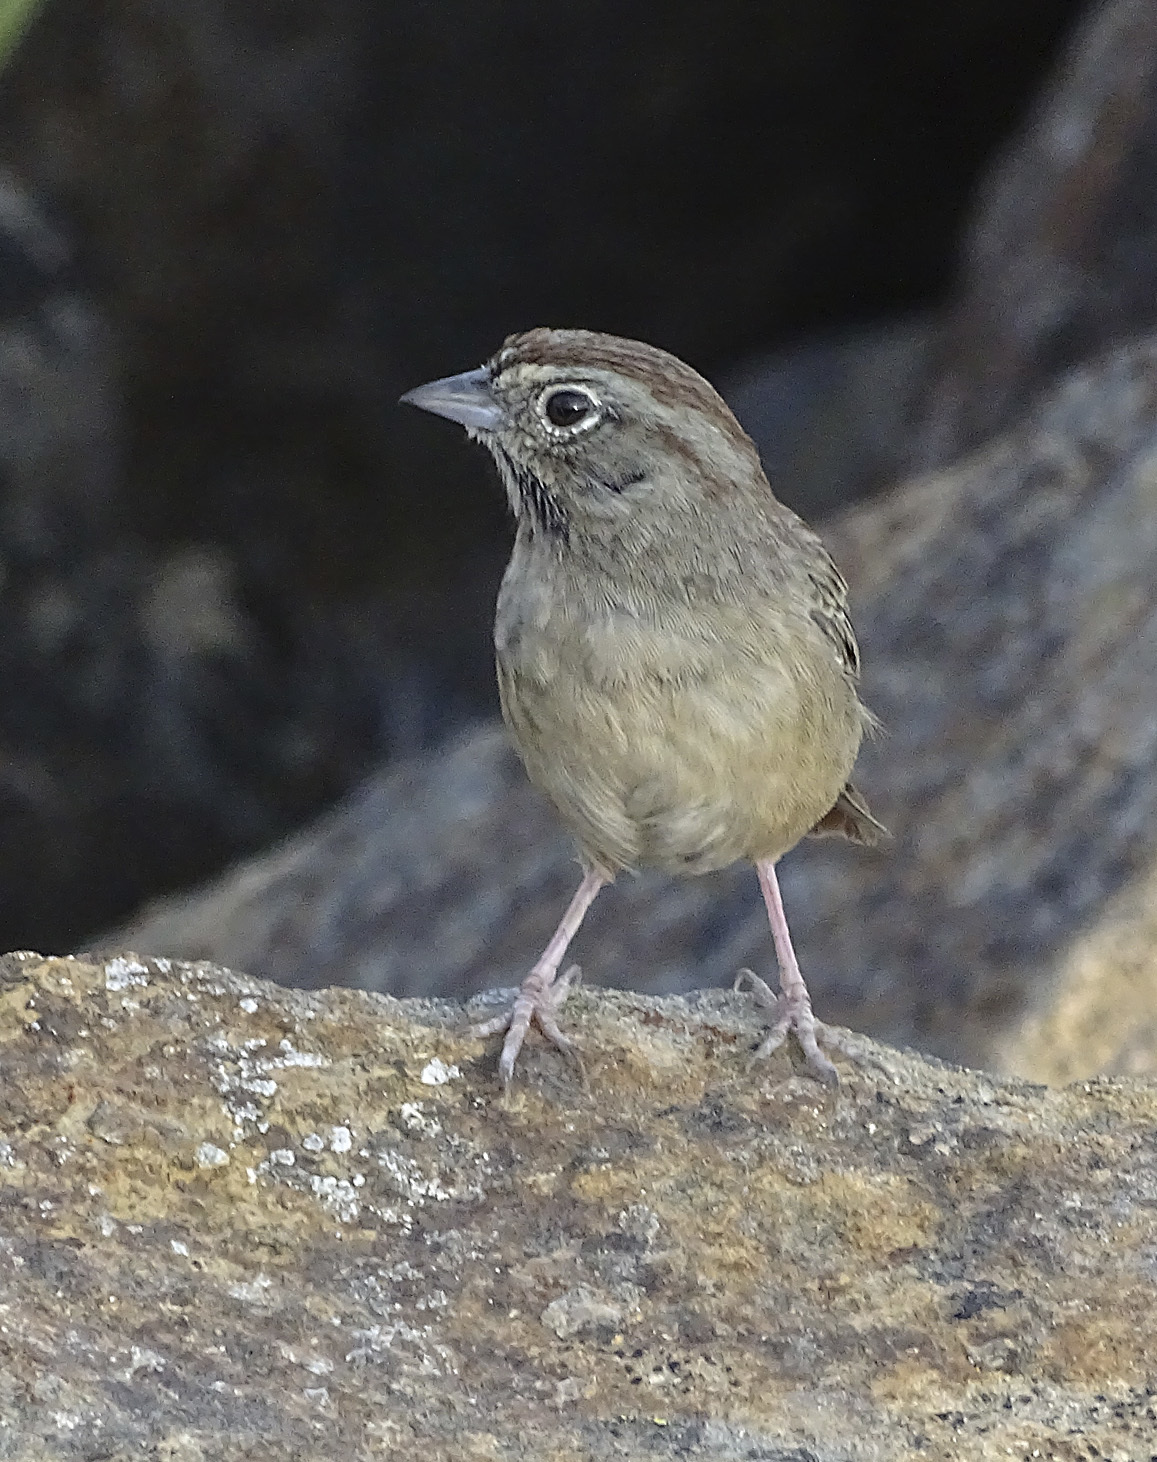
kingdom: Animalia
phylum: Chordata
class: Aves
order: Passeriformes
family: Passerellidae
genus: Aimophila
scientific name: Aimophila ruficeps
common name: Rufous-crowned sparrow
